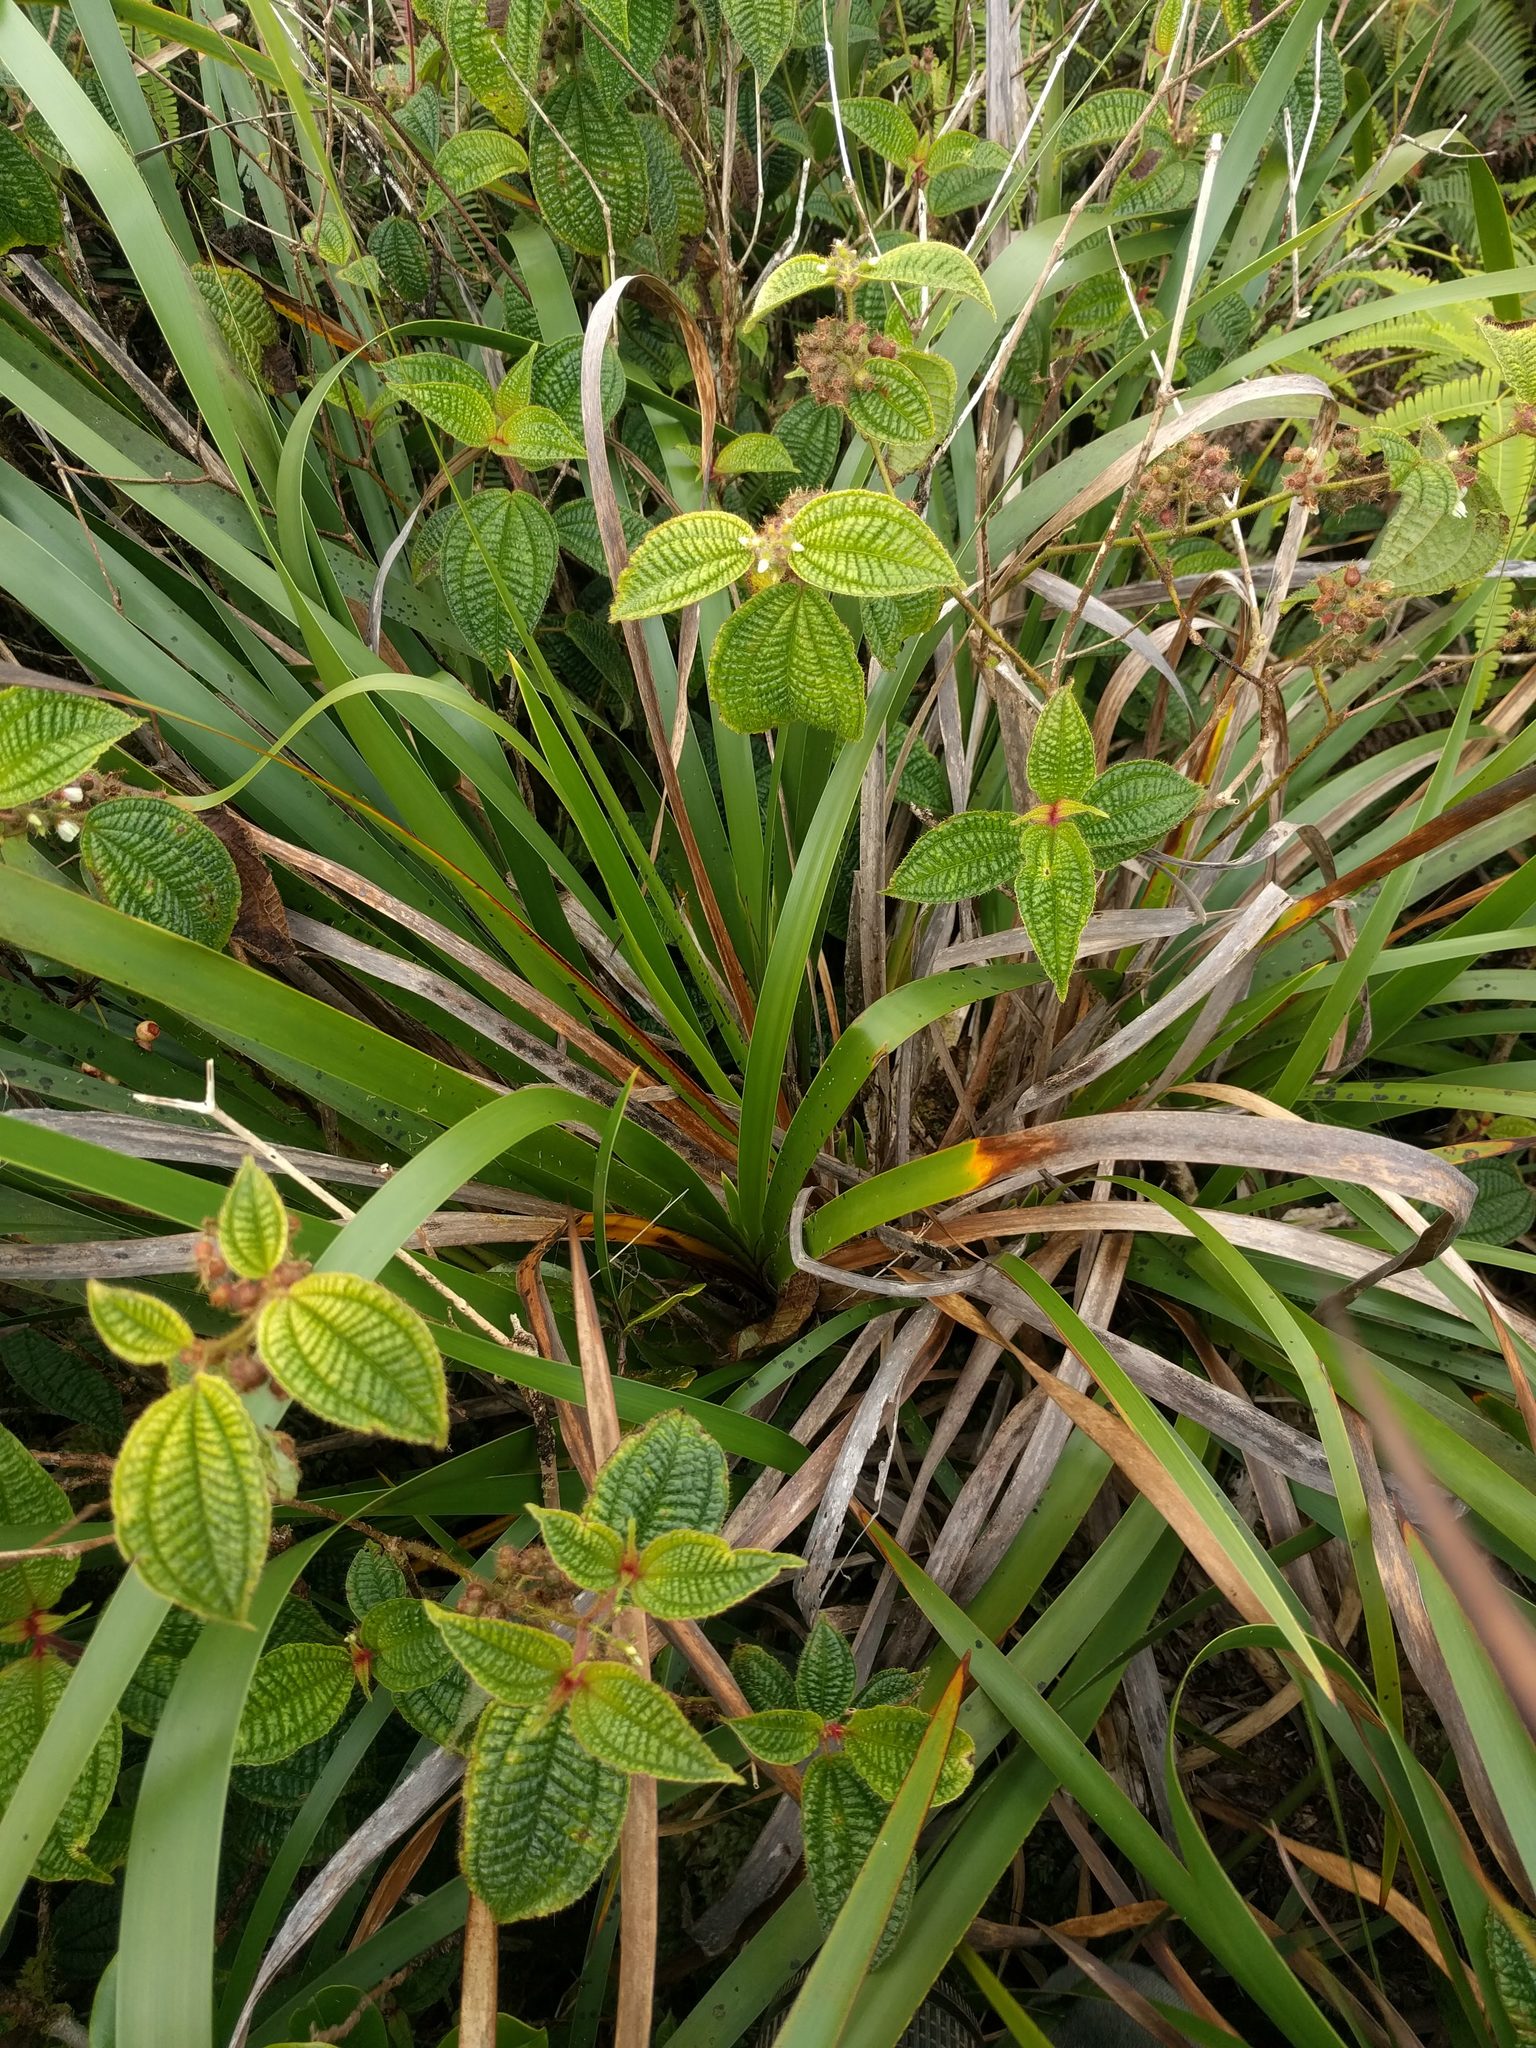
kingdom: Plantae
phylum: Tracheophyta
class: Liliopsida
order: Poales
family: Cyperaceae
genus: Machaerina
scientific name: Machaerina angustifolia
